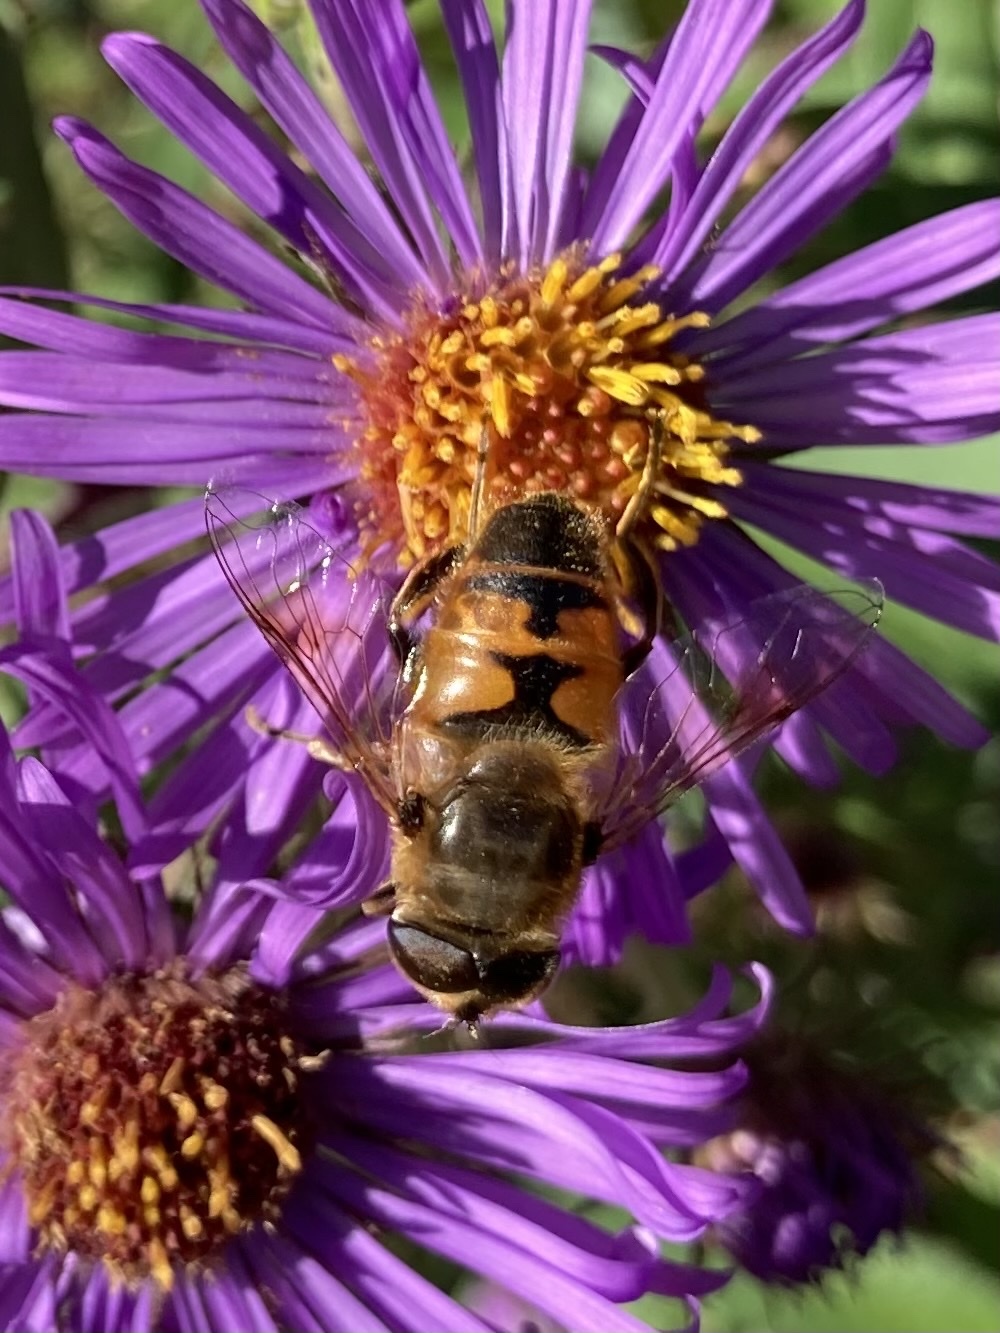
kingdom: Animalia
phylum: Arthropoda
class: Insecta
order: Diptera
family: Syrphidae
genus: Eristalis
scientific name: Eristalis tenax
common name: Drone fly
